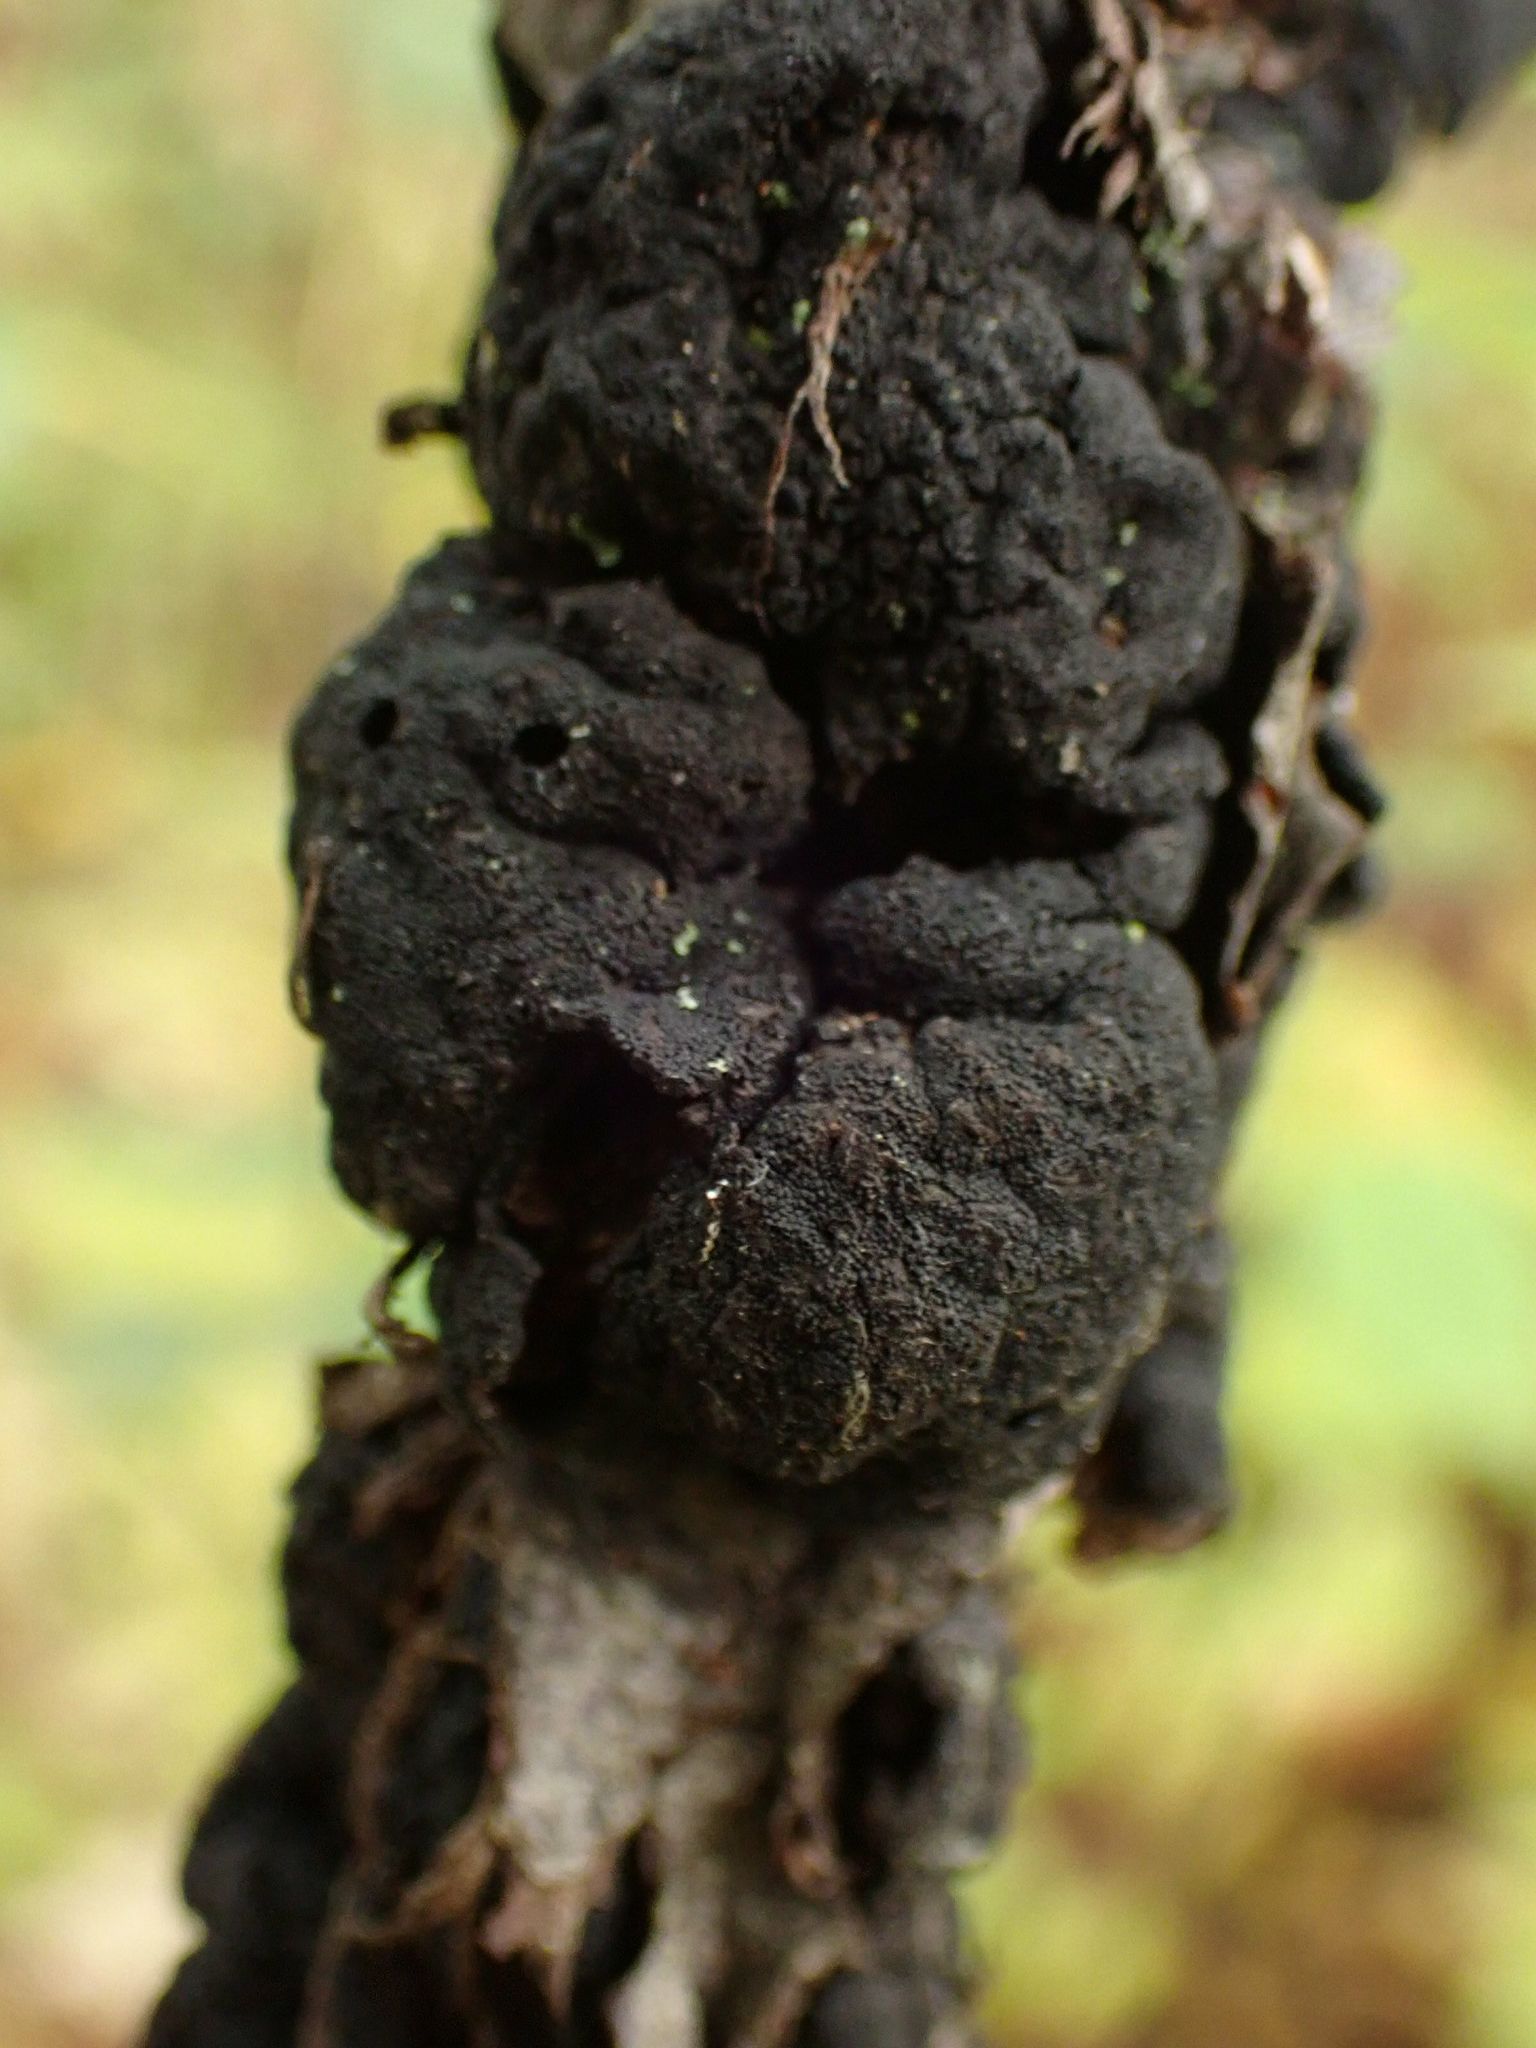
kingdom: Fungi
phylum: Ascomycota
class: Dothideomycetes
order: Venturiales
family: Venturiaceae
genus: Apiosporina
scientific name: Apiosporina morbosa
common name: Black knot
